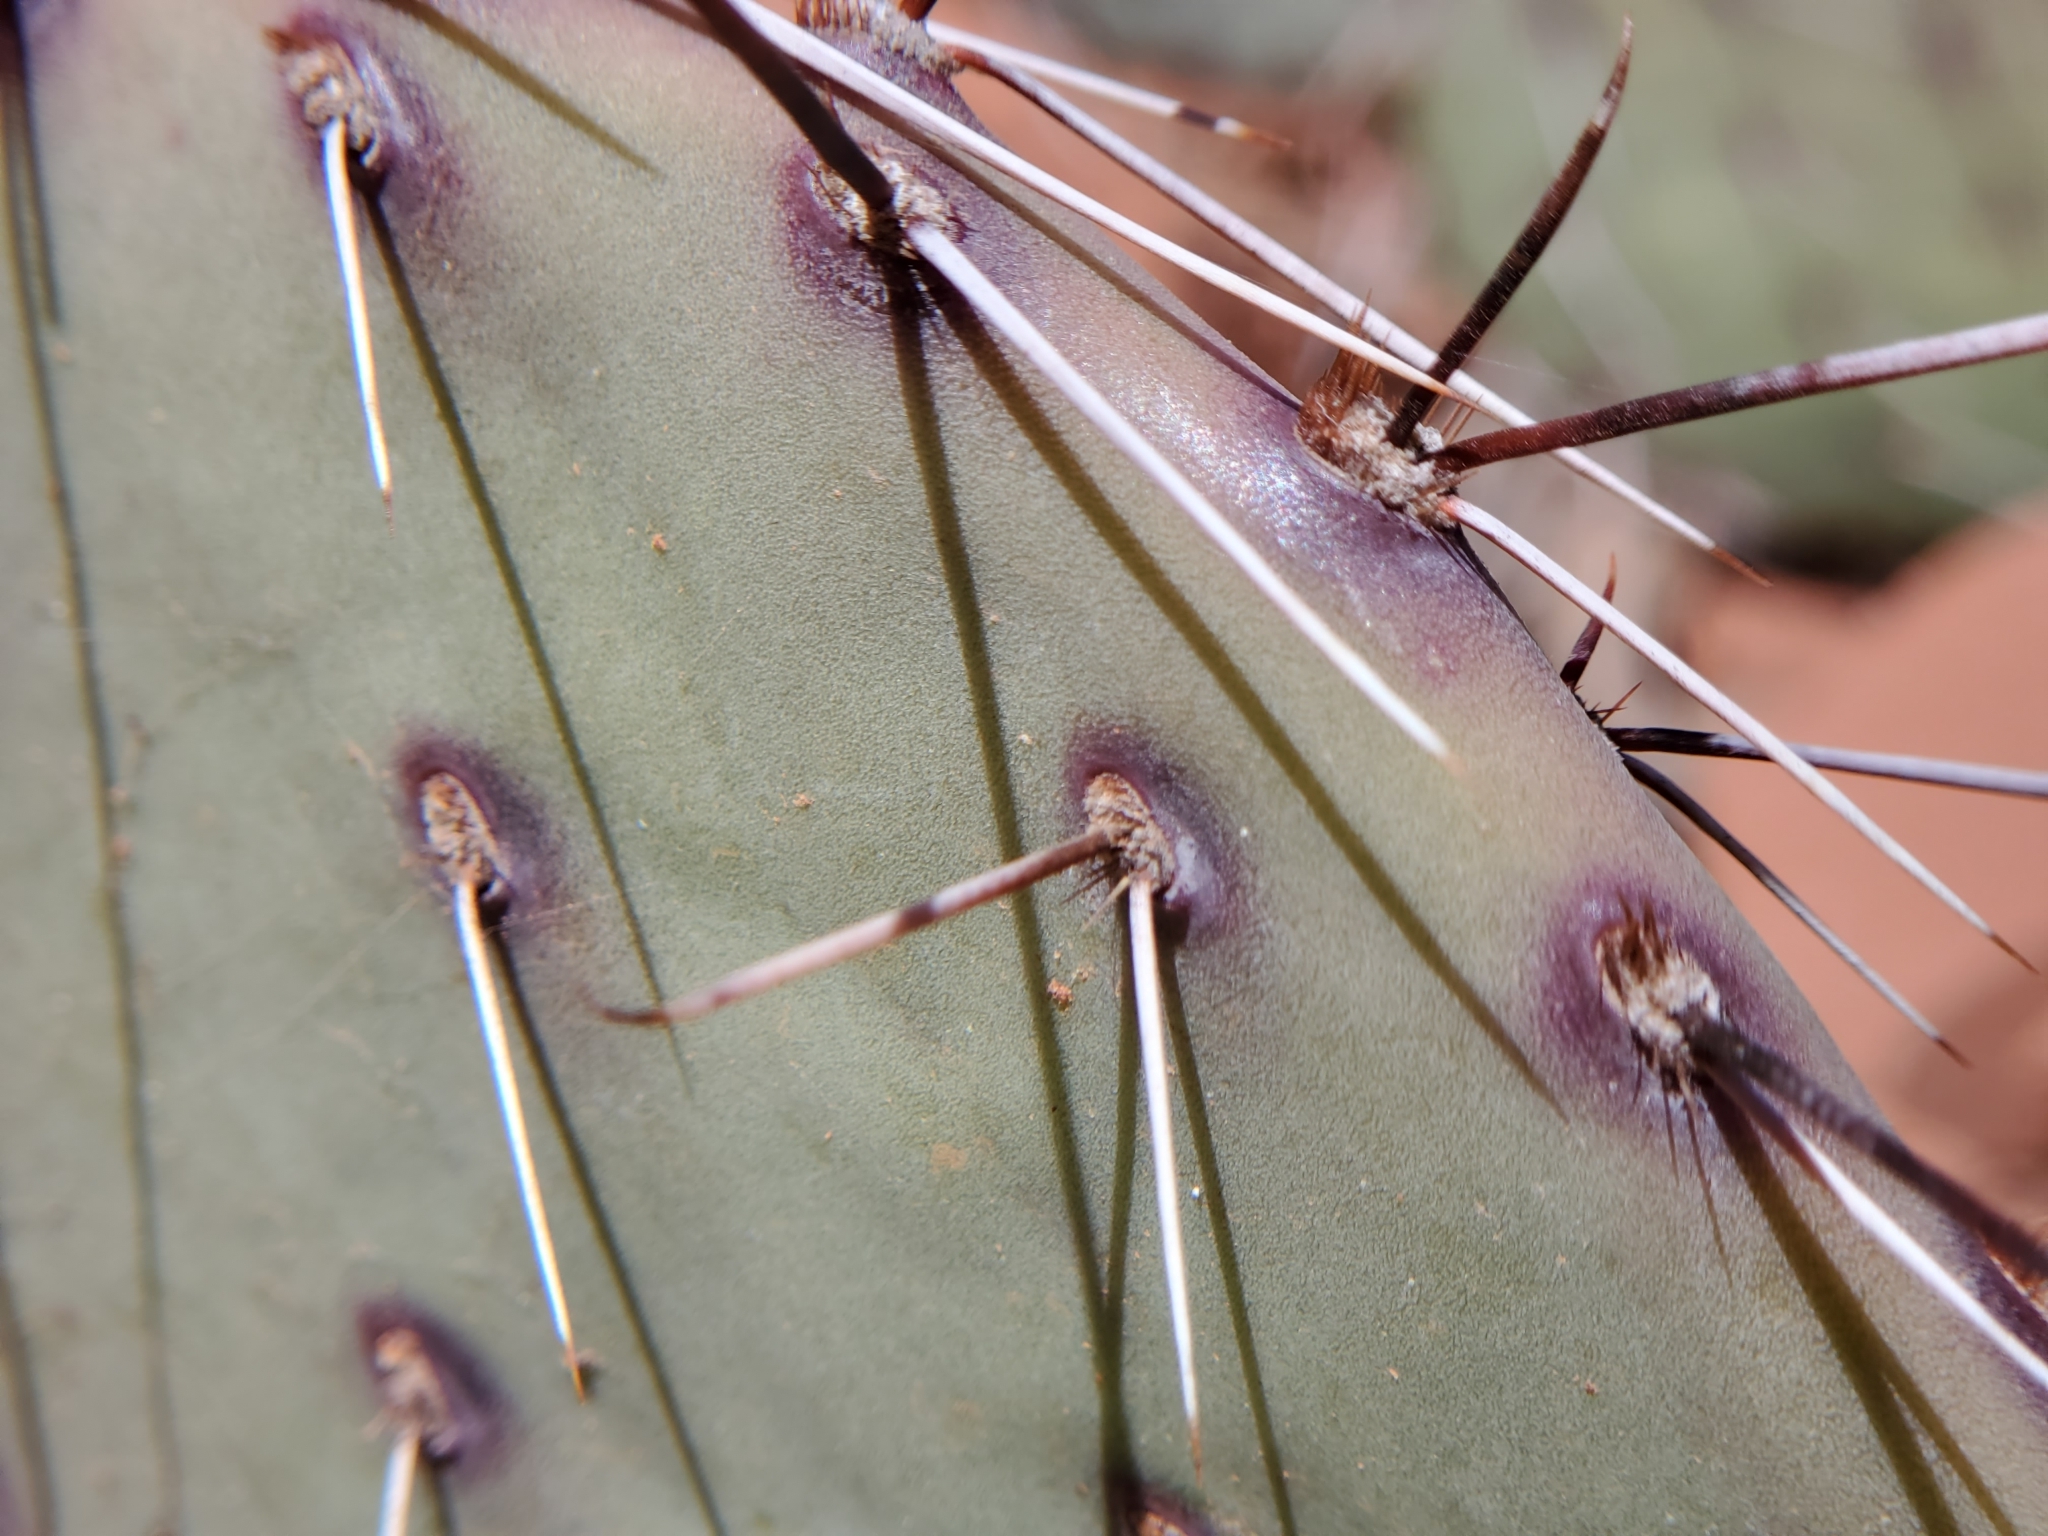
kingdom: Plantae
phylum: Tracheophyta
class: Magnoliopsida
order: Caryophyllales
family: Cactaceae
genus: Opuntia
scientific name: Opuntia phaeacantha
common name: New mexico prickly-pear
